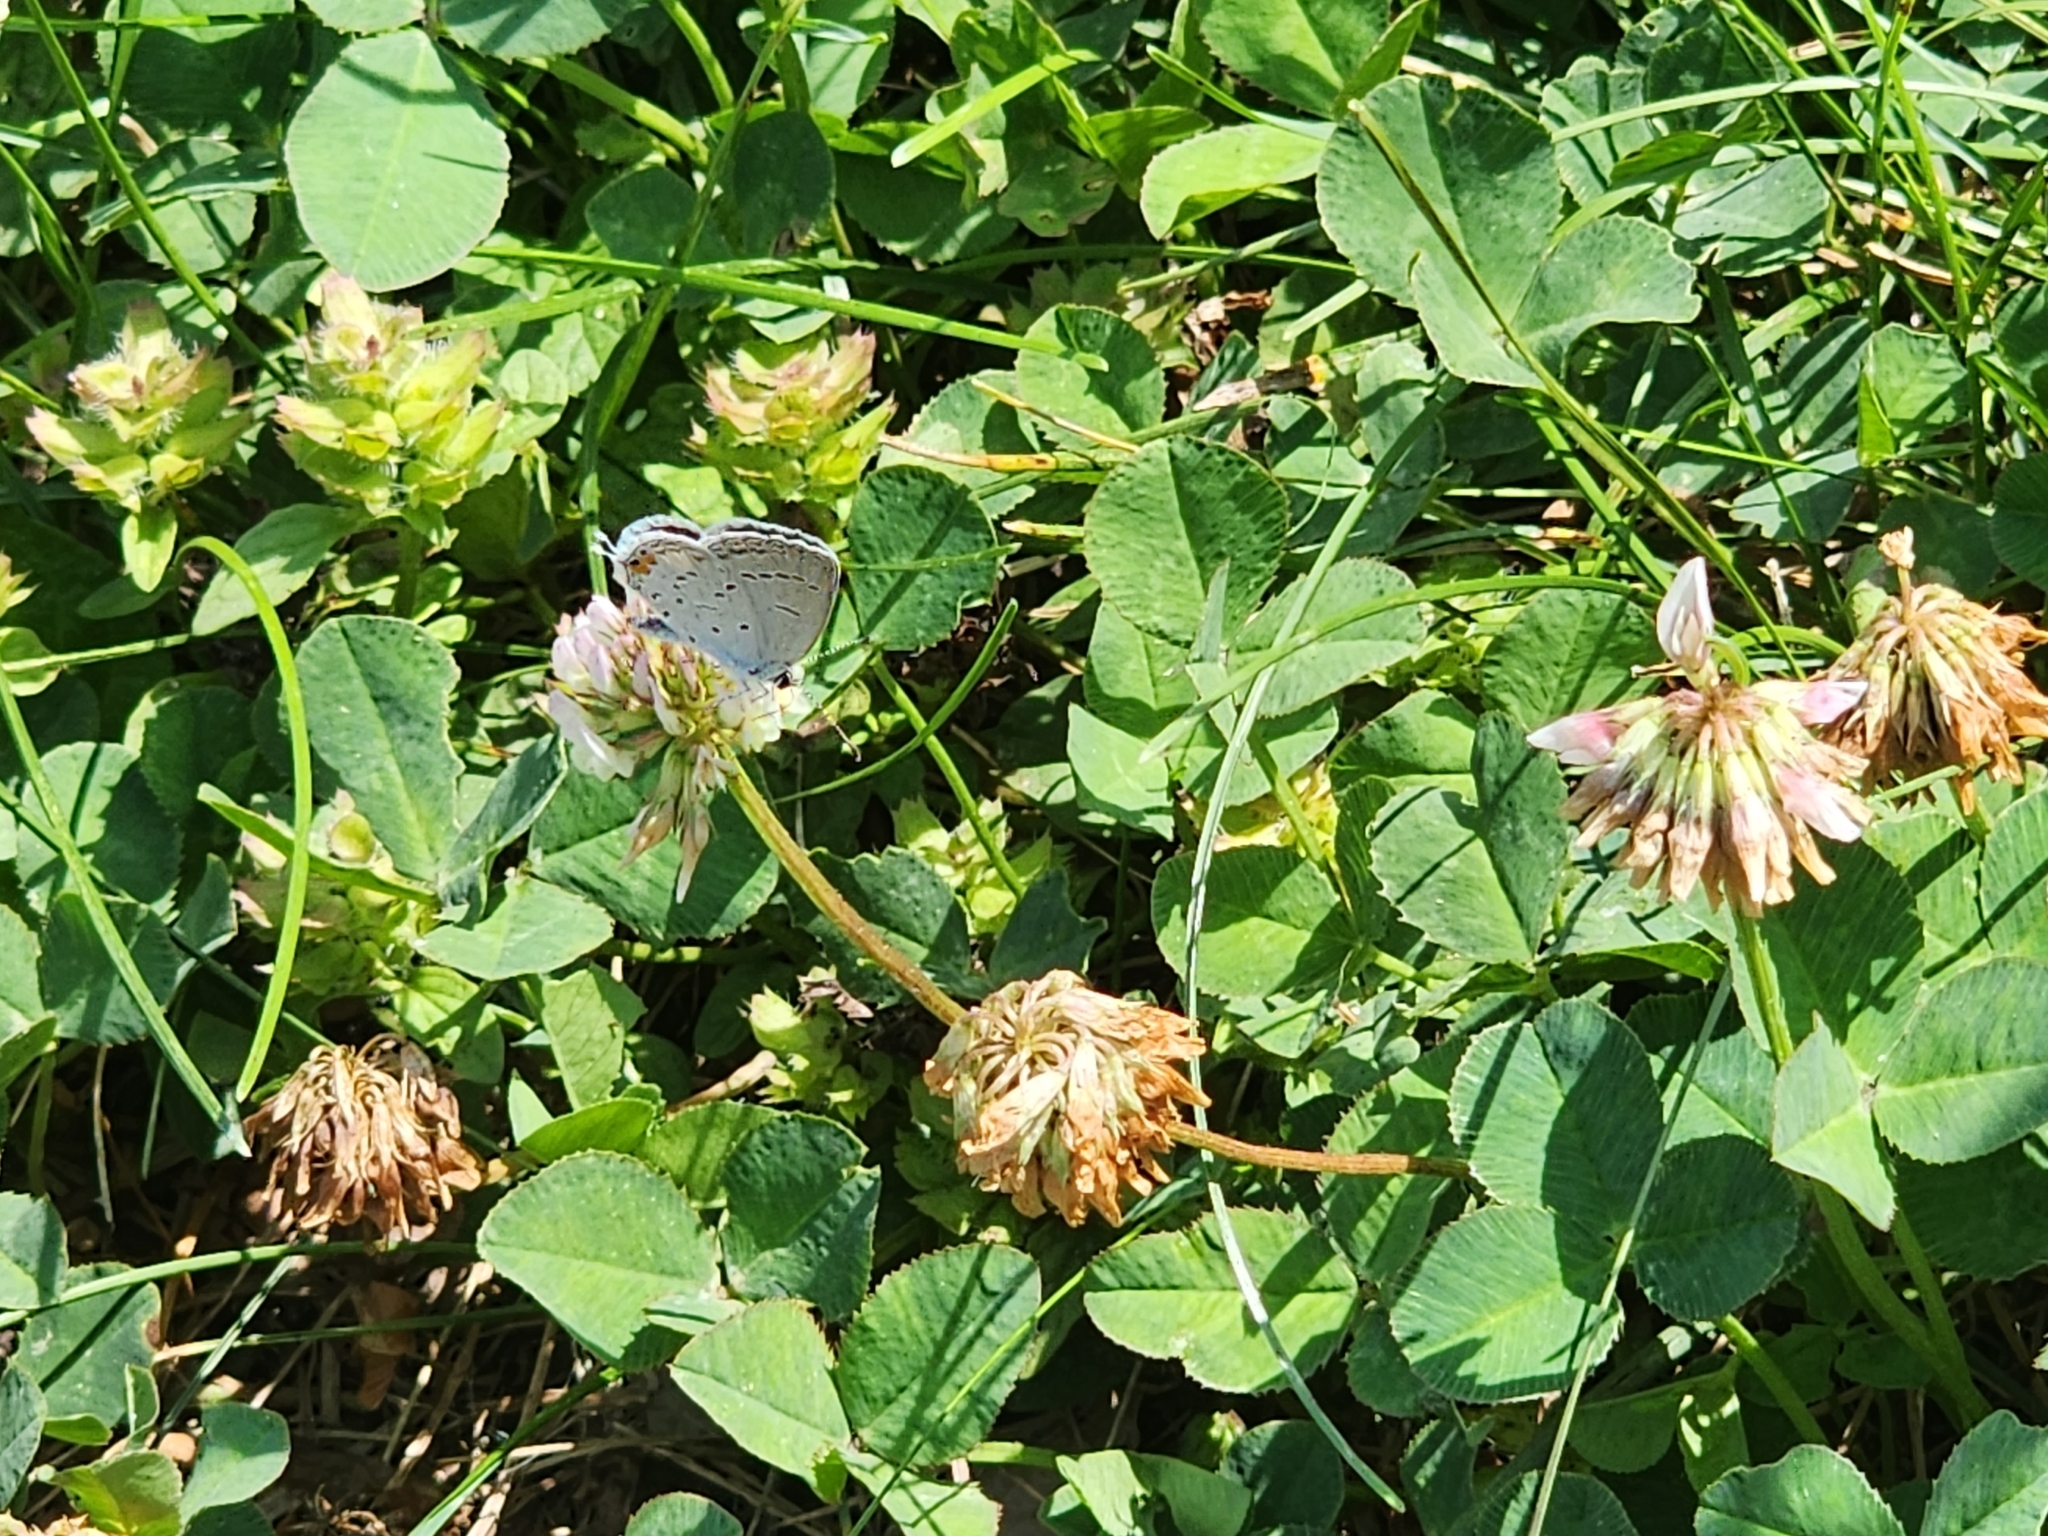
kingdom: Animalia
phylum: Arthropoda
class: Insecta
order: Lepidoptera
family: Lycaenidae
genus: Elkalyce
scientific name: Elkalyce comyntas
